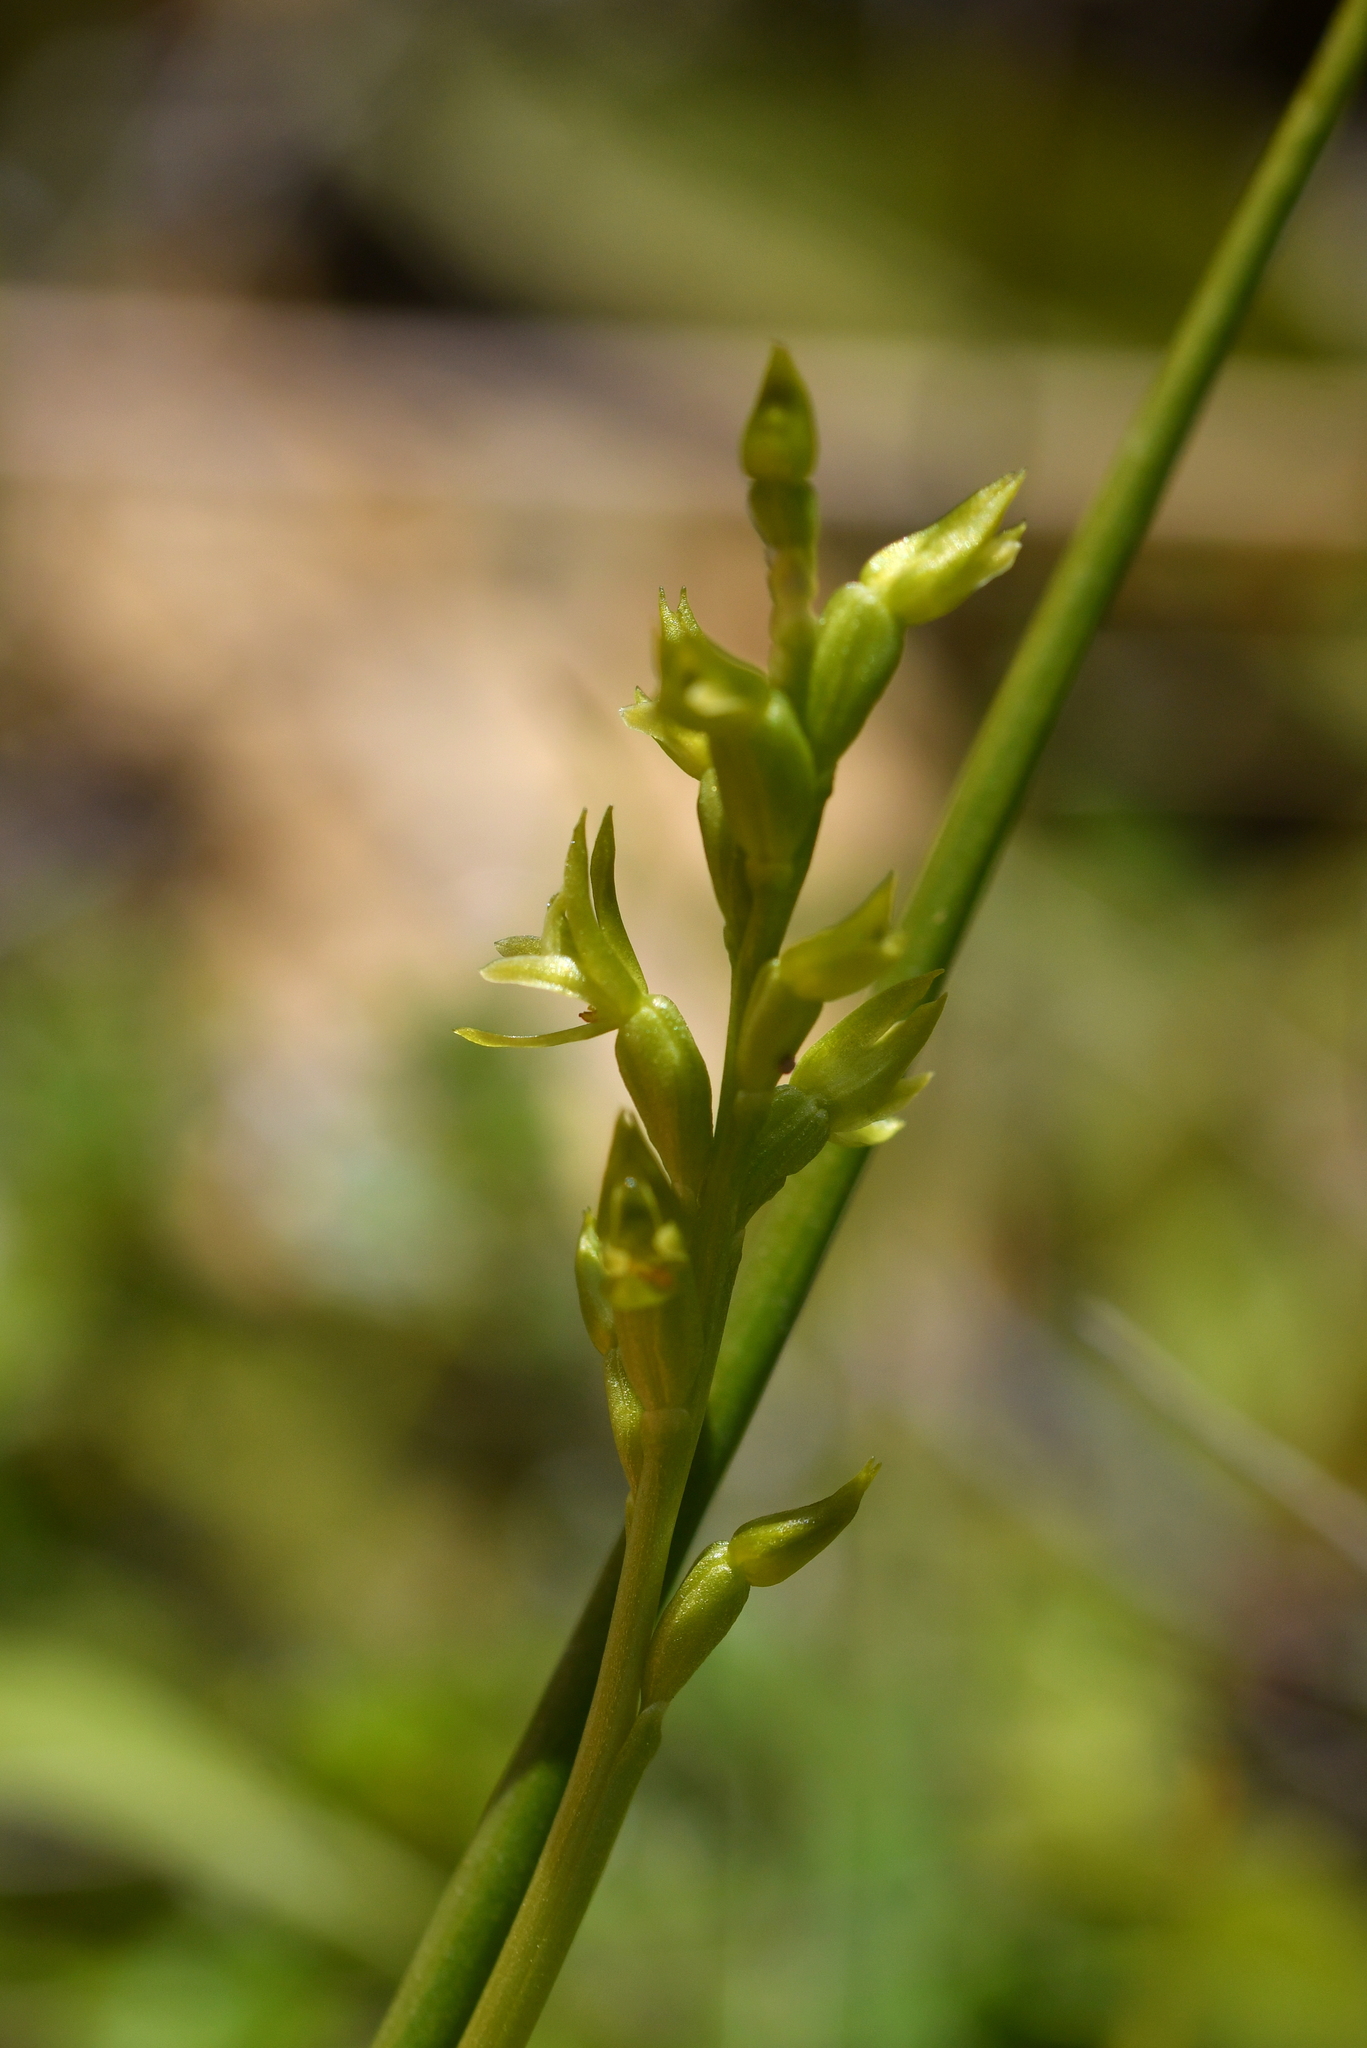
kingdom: Plantae
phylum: Tracheophyta
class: Liliopsida
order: Asparagales
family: Orchidaceae
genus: Prasophyllum
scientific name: Prasophyllum colensoi
